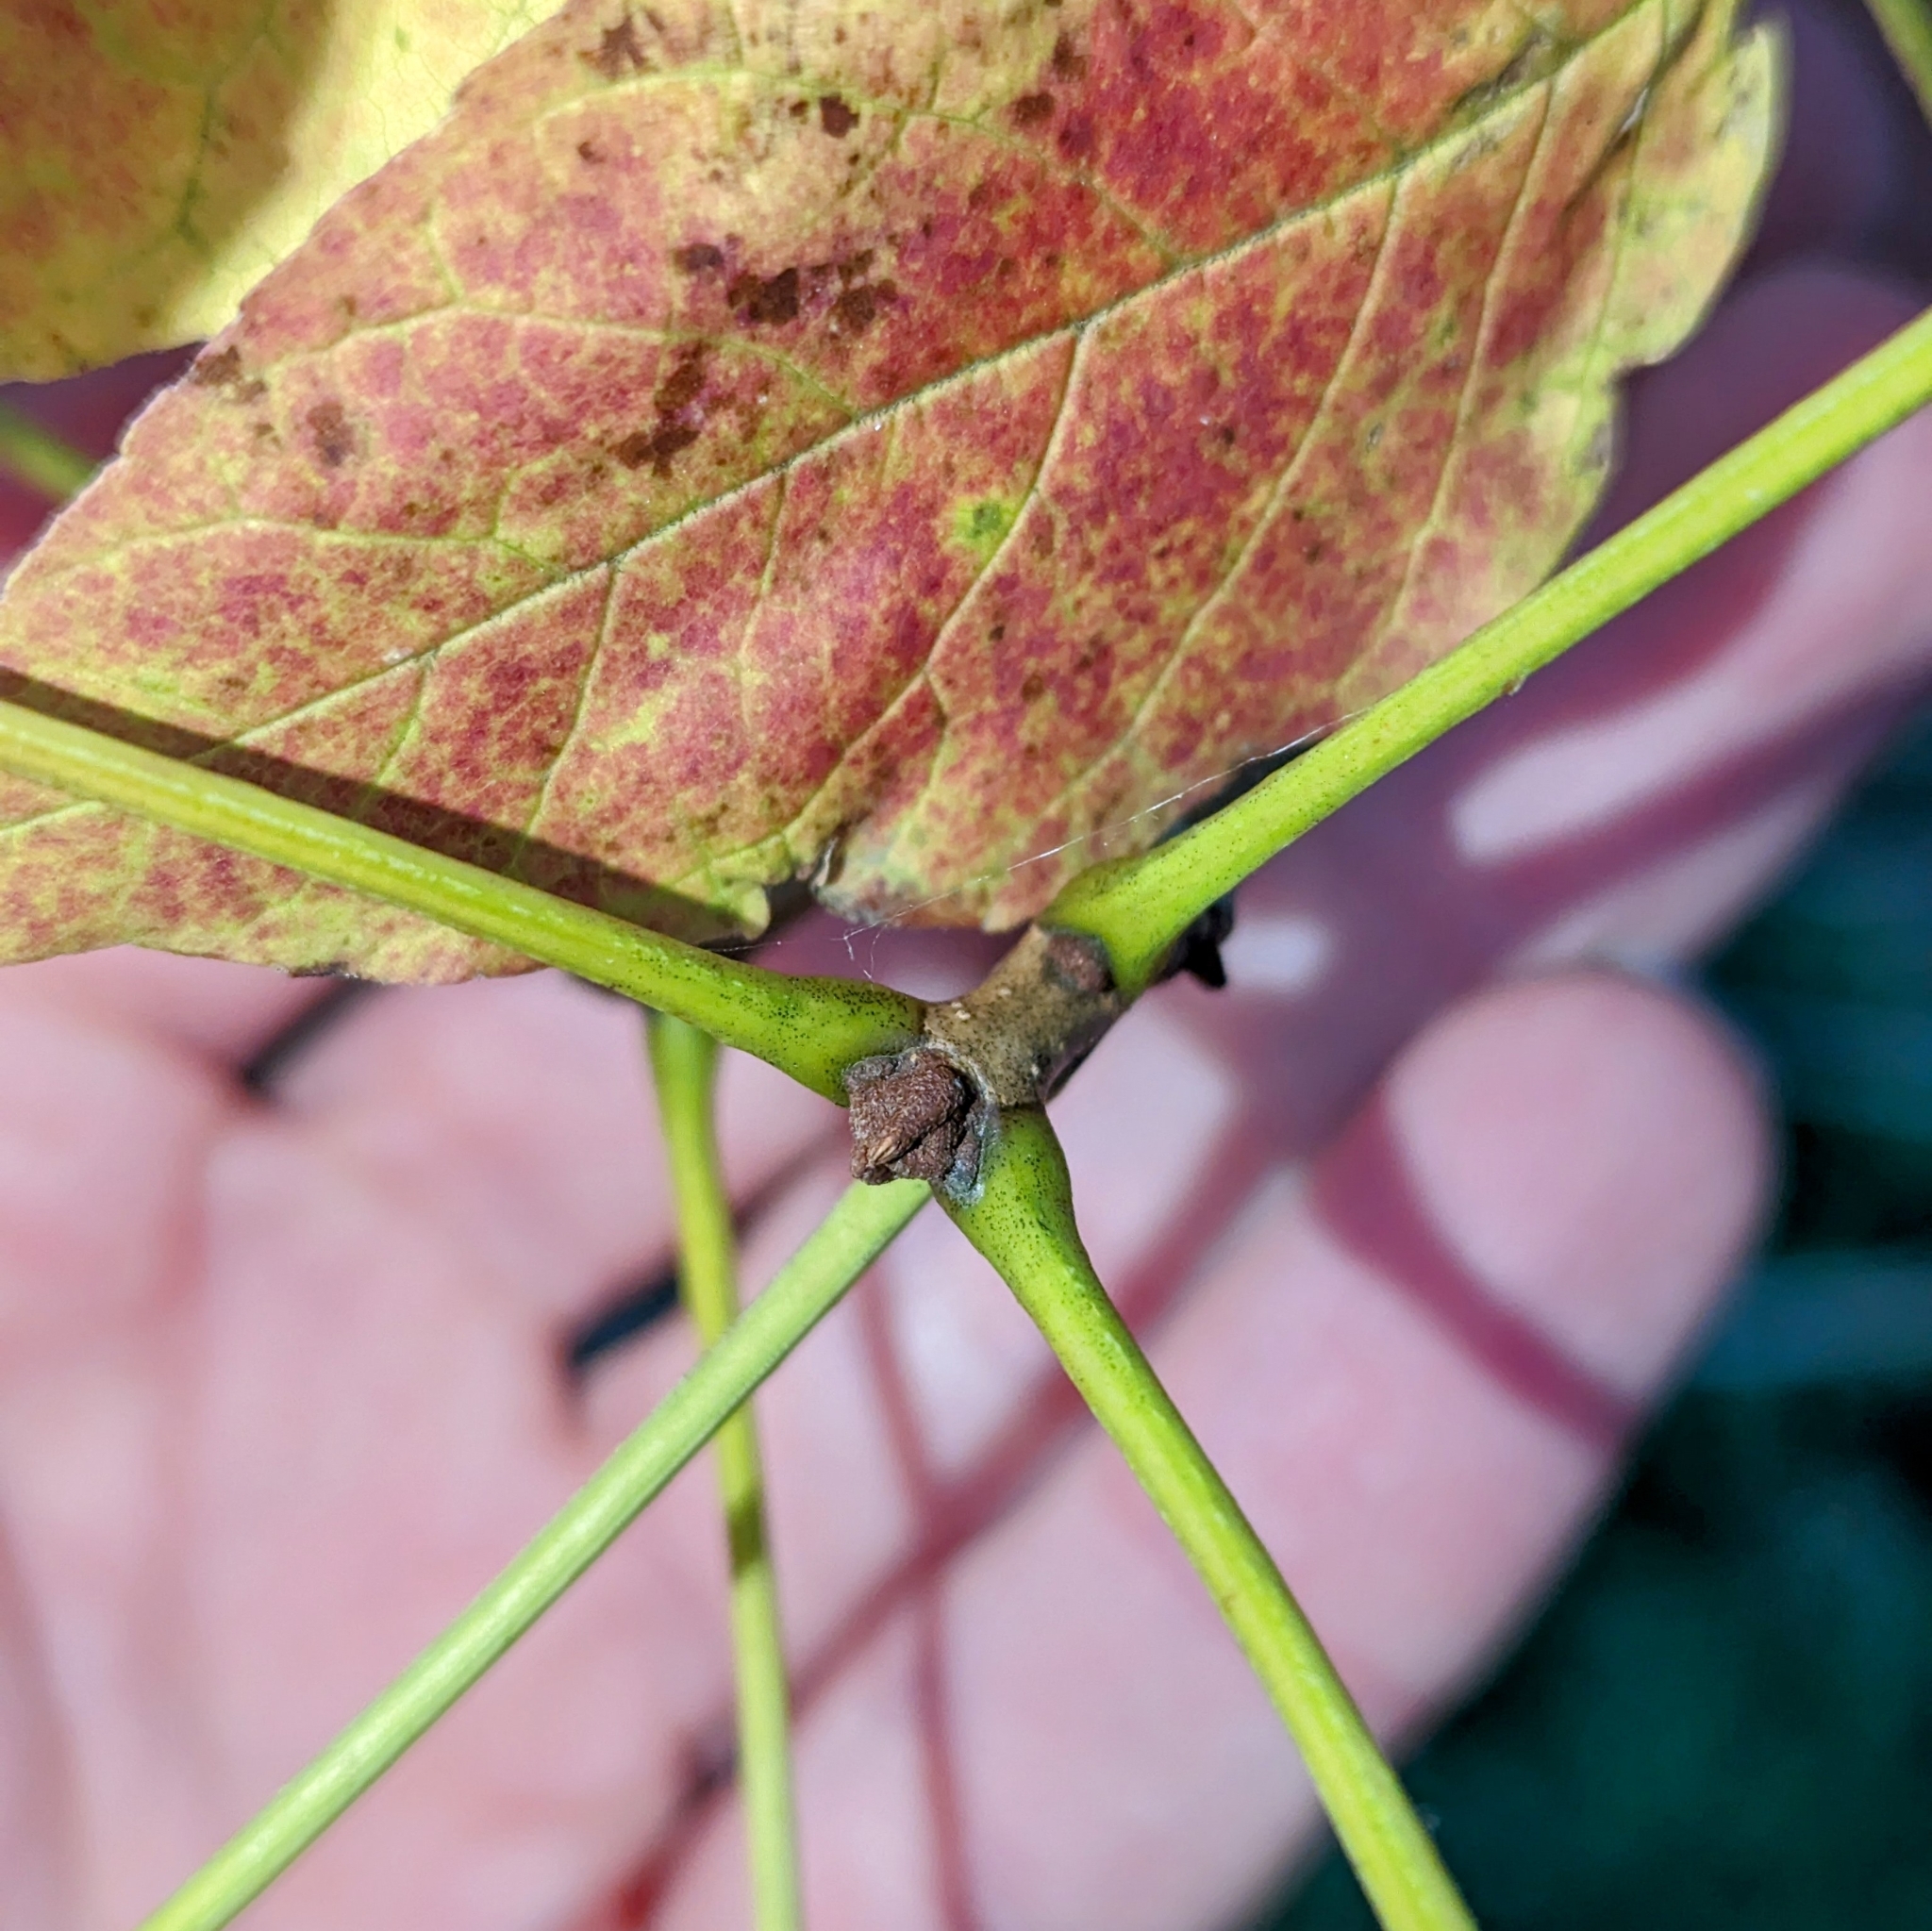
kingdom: Plantae
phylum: Tracheophyta
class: Magnoliopsida
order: Lamiales
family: Oleaceae
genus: Fraxinus
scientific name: Fraxinus pennsylvanica
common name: Green ash
